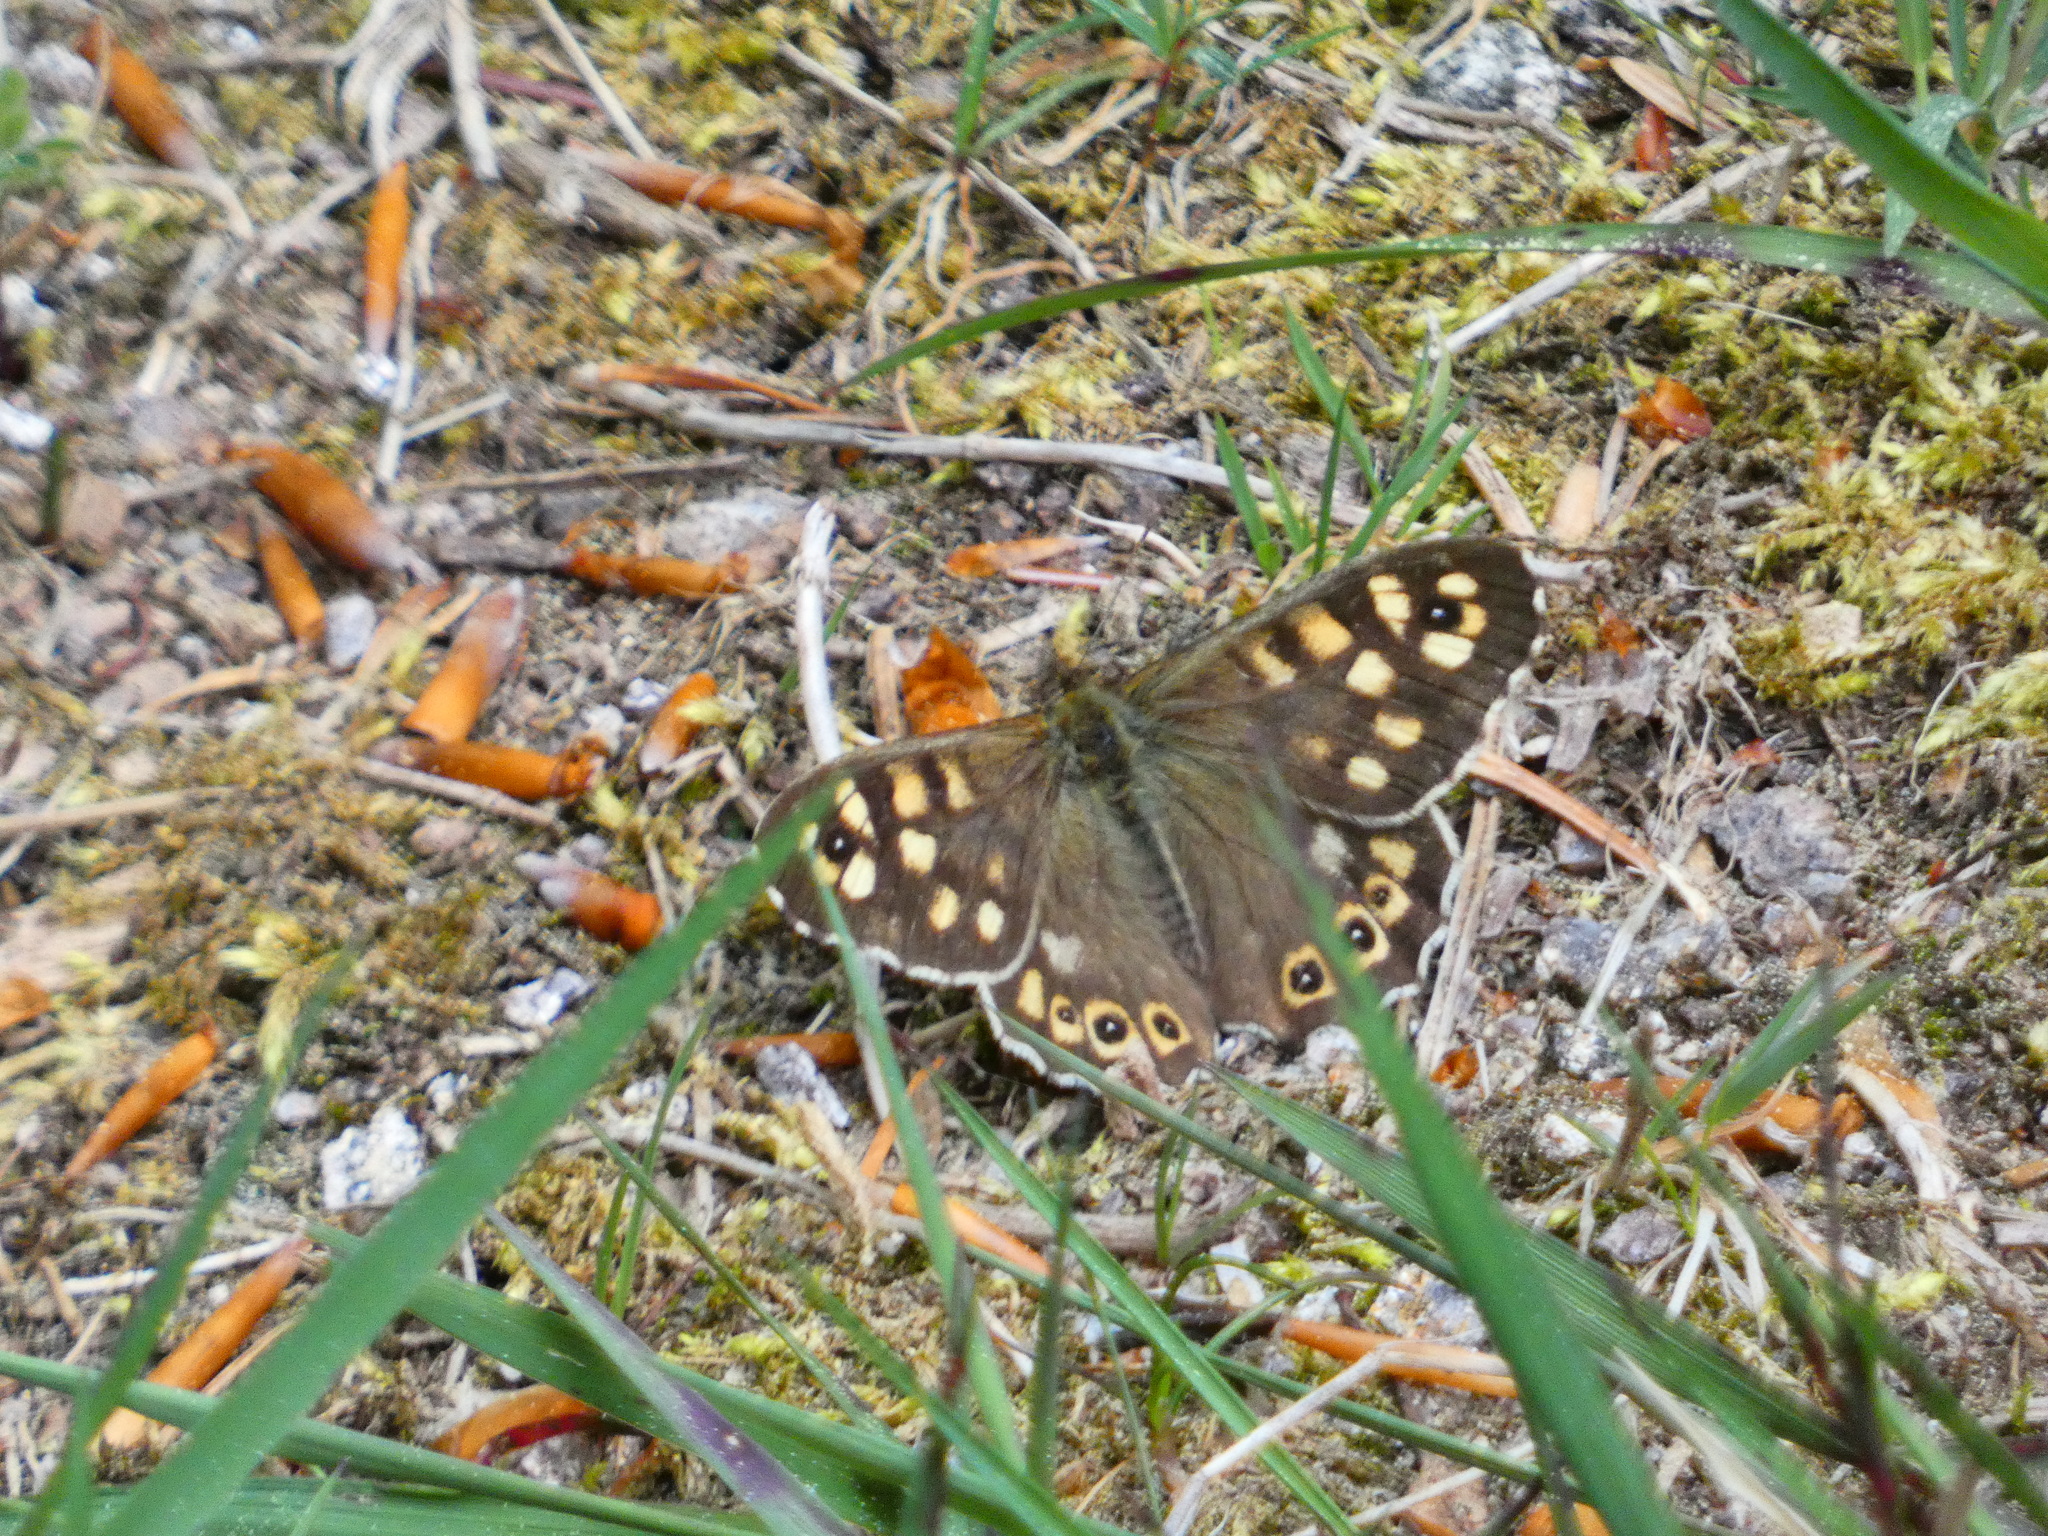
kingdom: Animalia
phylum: Arthropoda
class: Insecta
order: Lepidoptera
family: Nymphalidae
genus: Pararge
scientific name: Pararge aegeria
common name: Speckled wood
